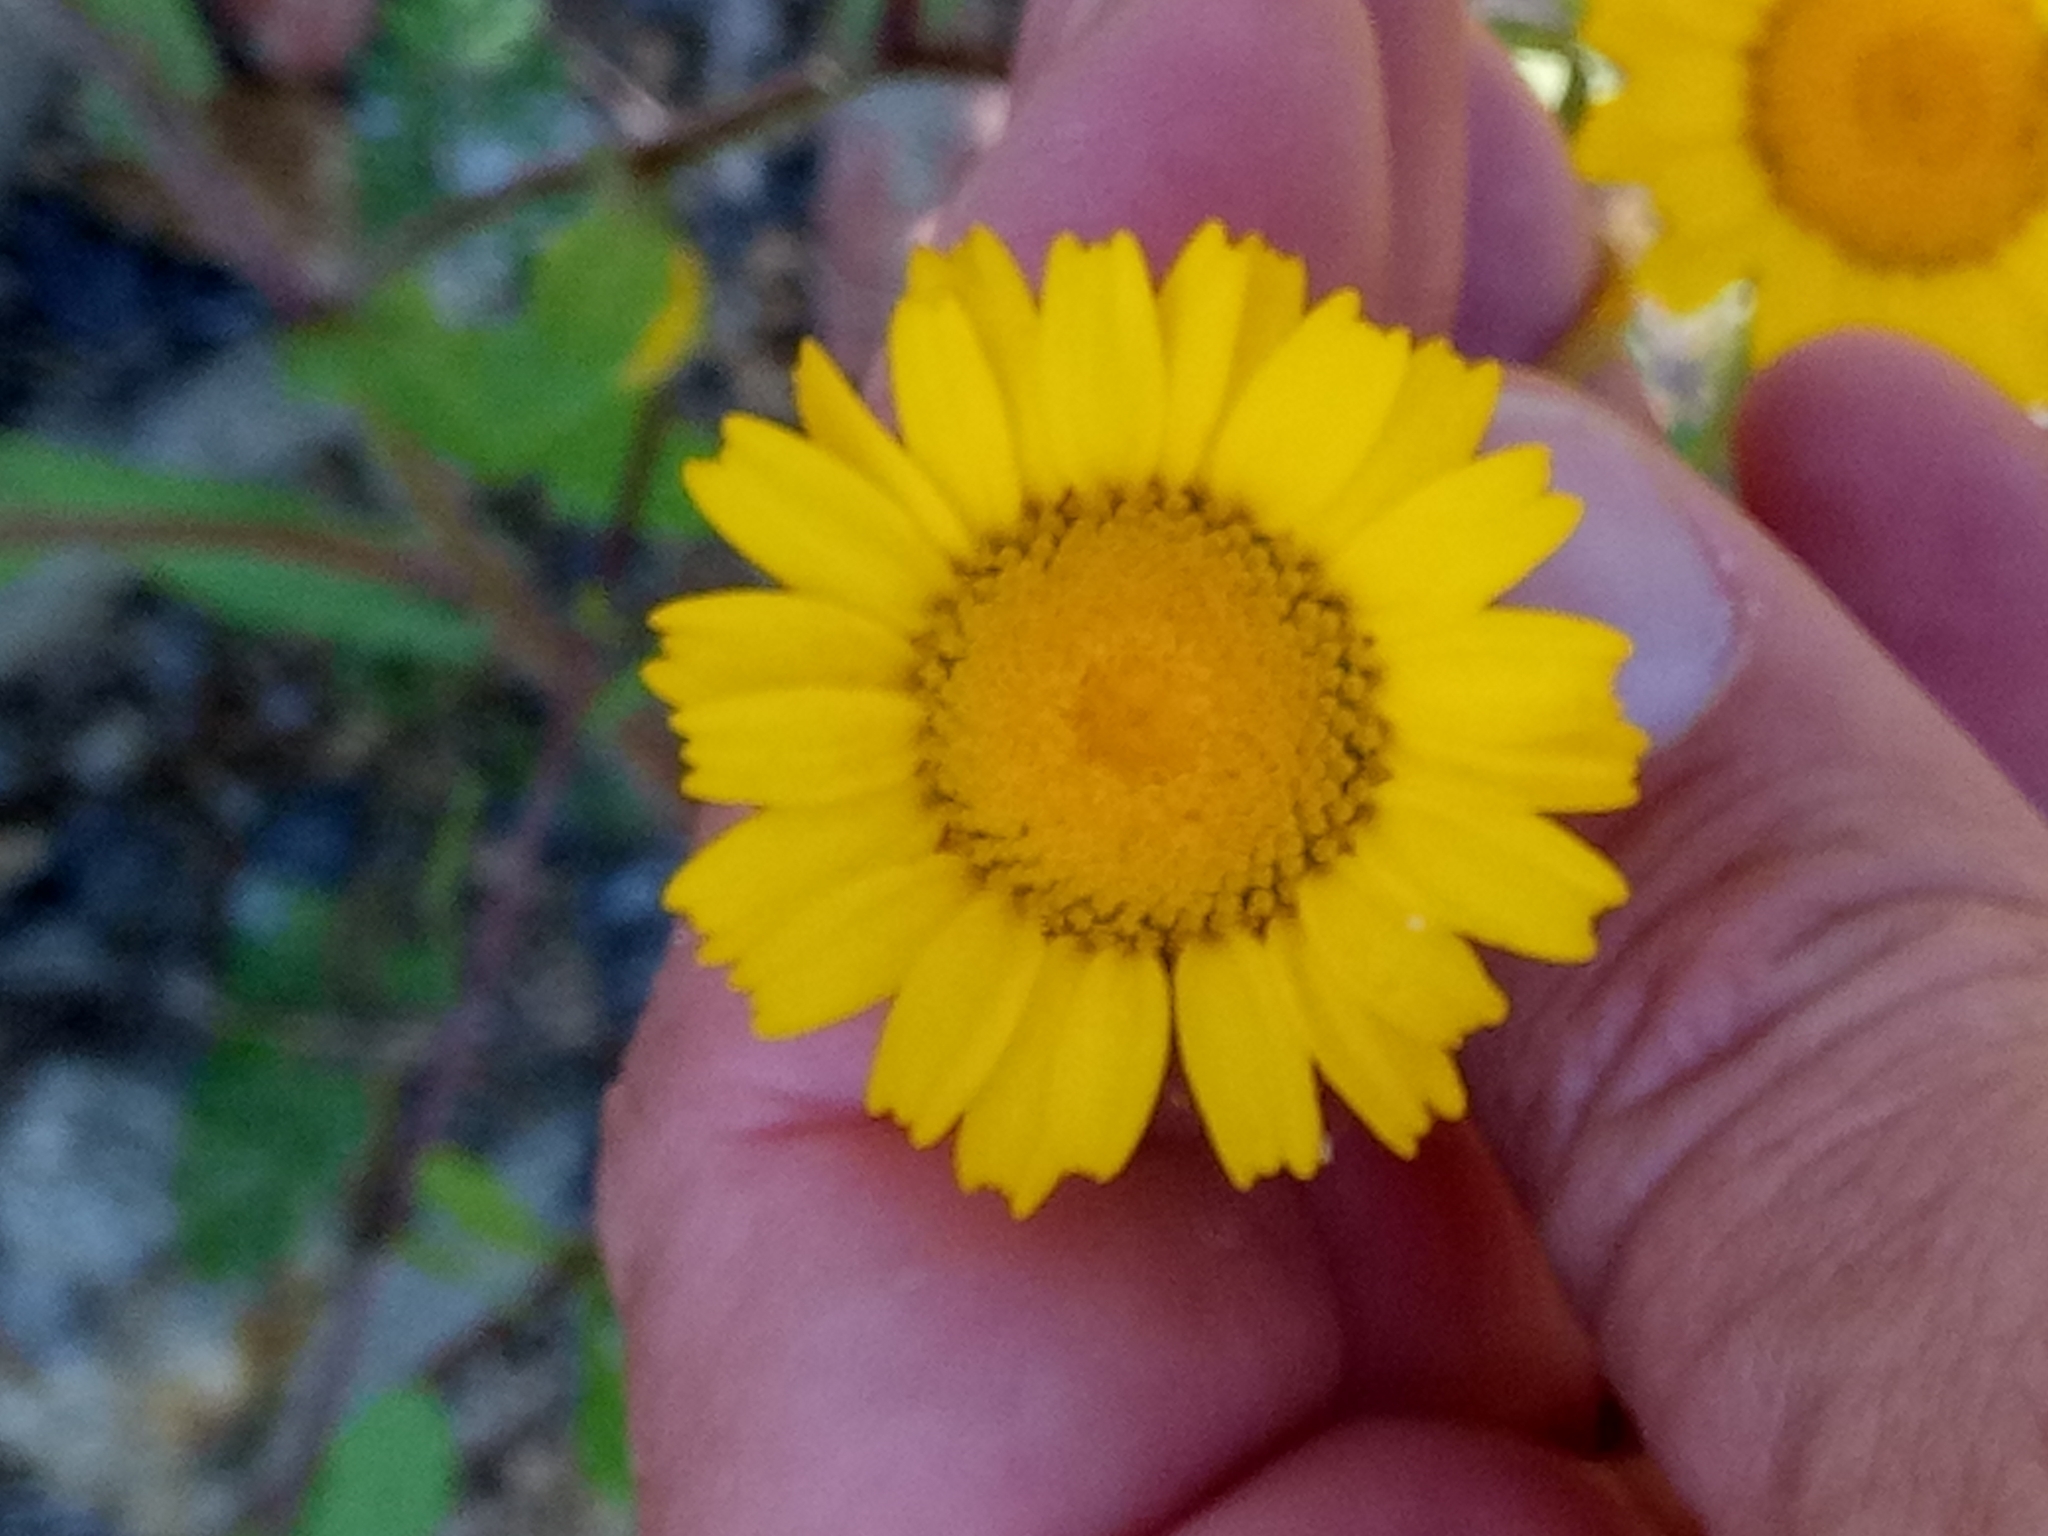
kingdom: Plantae
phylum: Tracheophyta
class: Magnoliopsida
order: Asterales
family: Asteraceae
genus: Coleostephus
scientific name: Coleostephus myconis
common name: Mediterranean marigold
